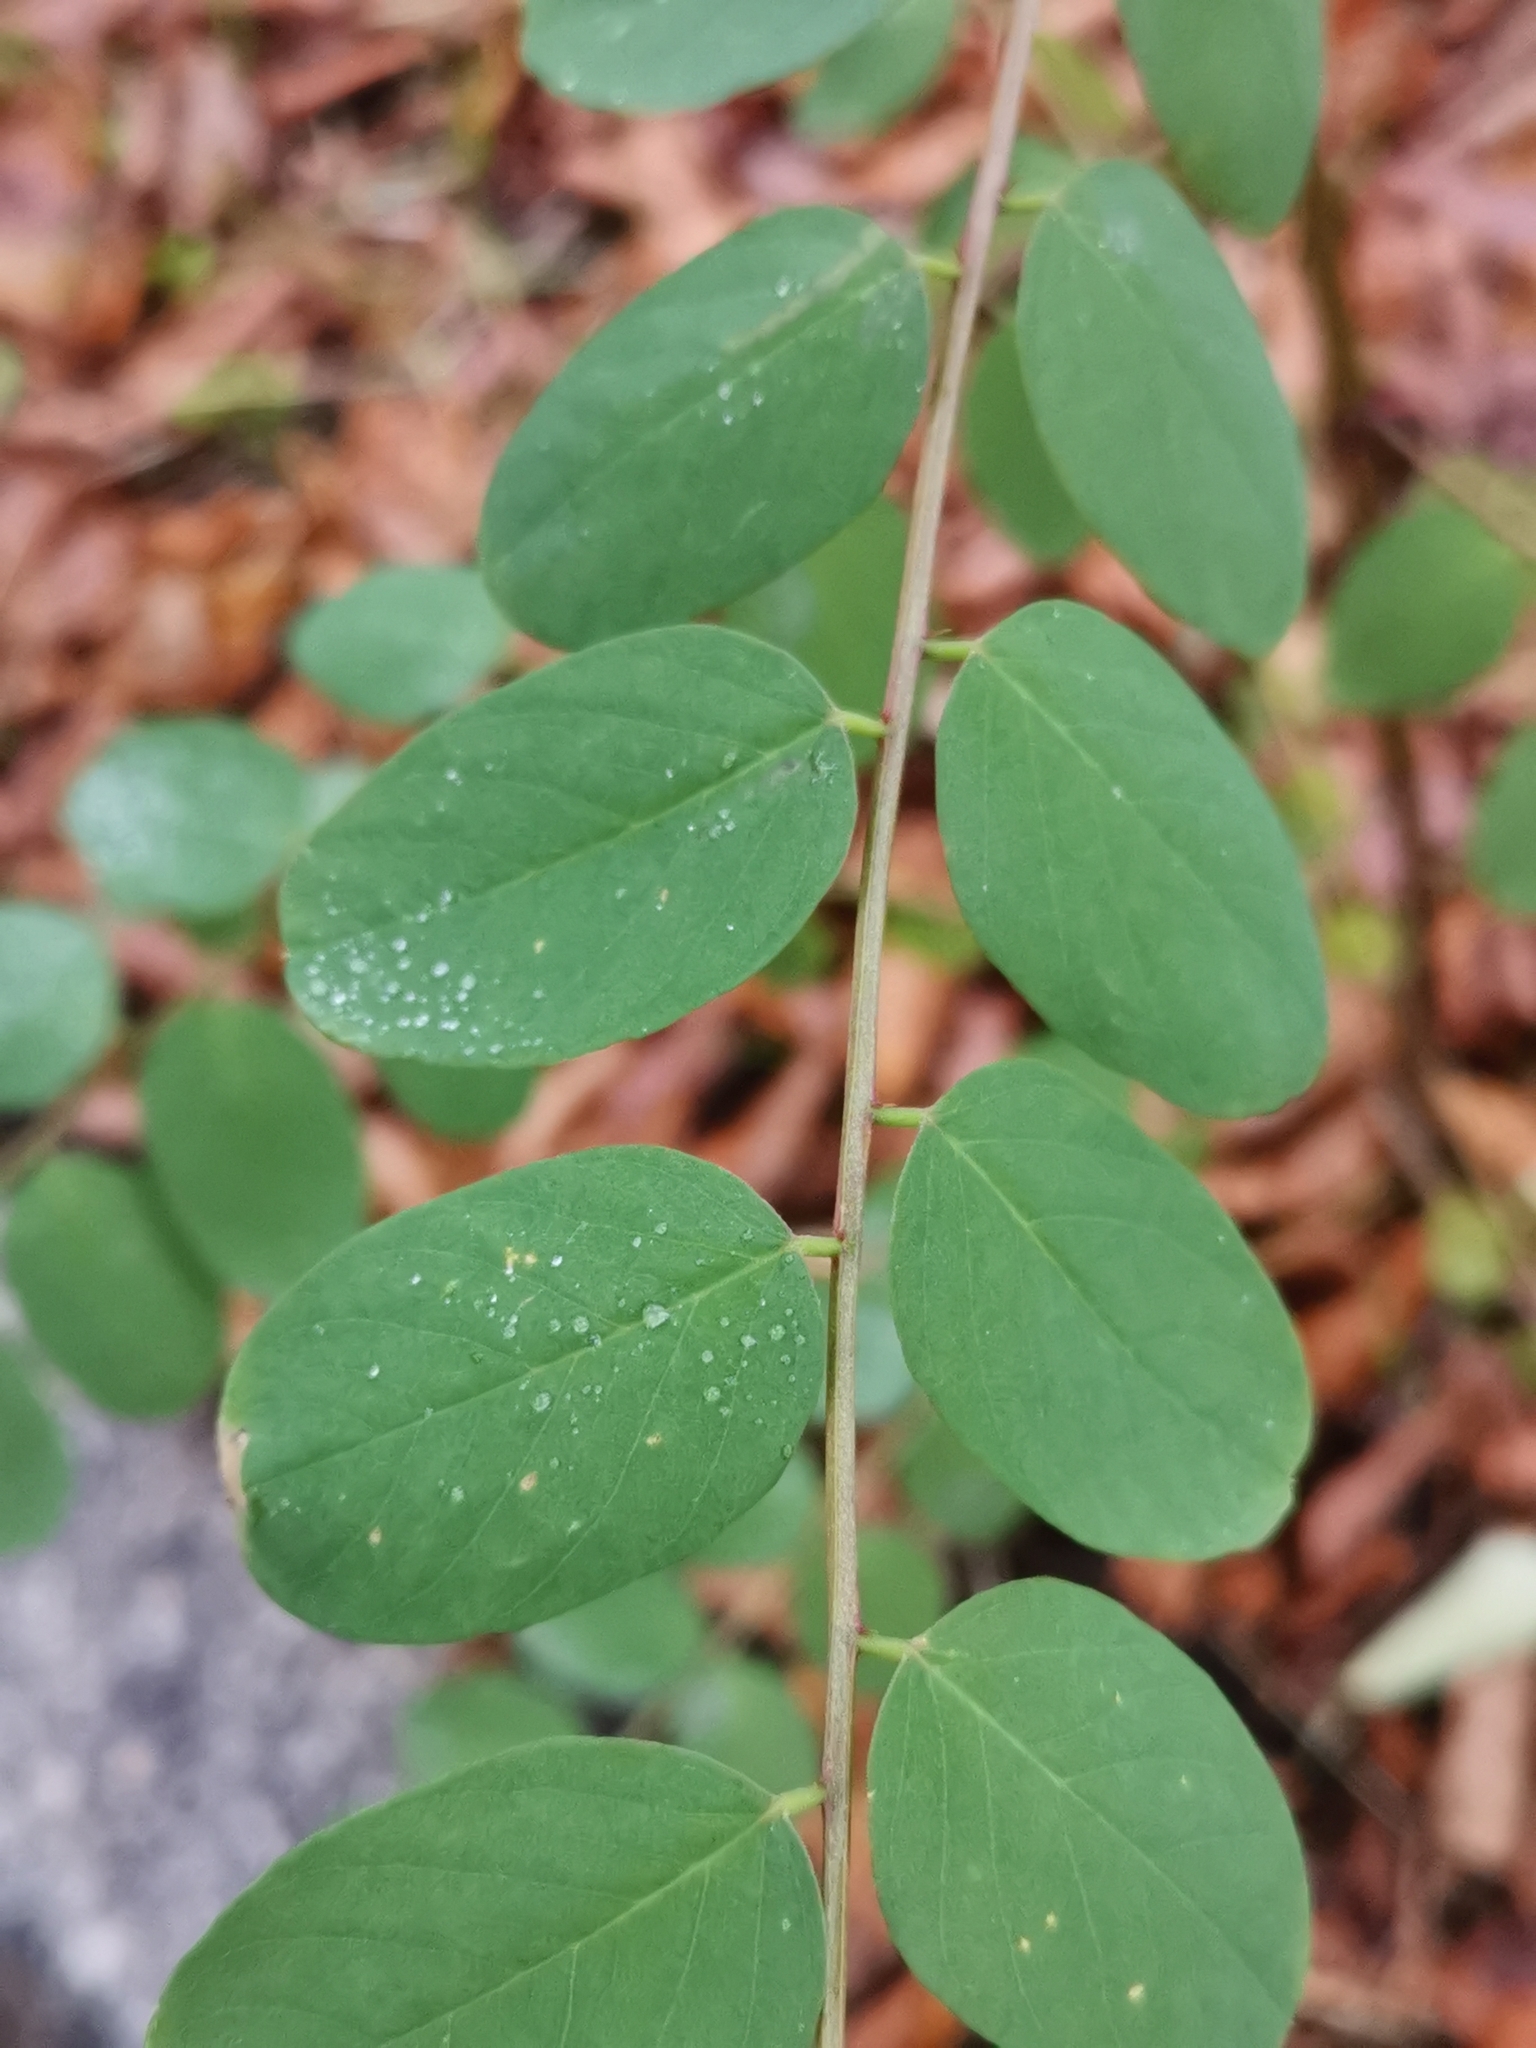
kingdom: Plantae
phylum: Tracheophyta
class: Magnoliopsida
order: Fabales
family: Fabaceae
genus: Robinia
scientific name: Robinia pseudoacacia
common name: Black locust
